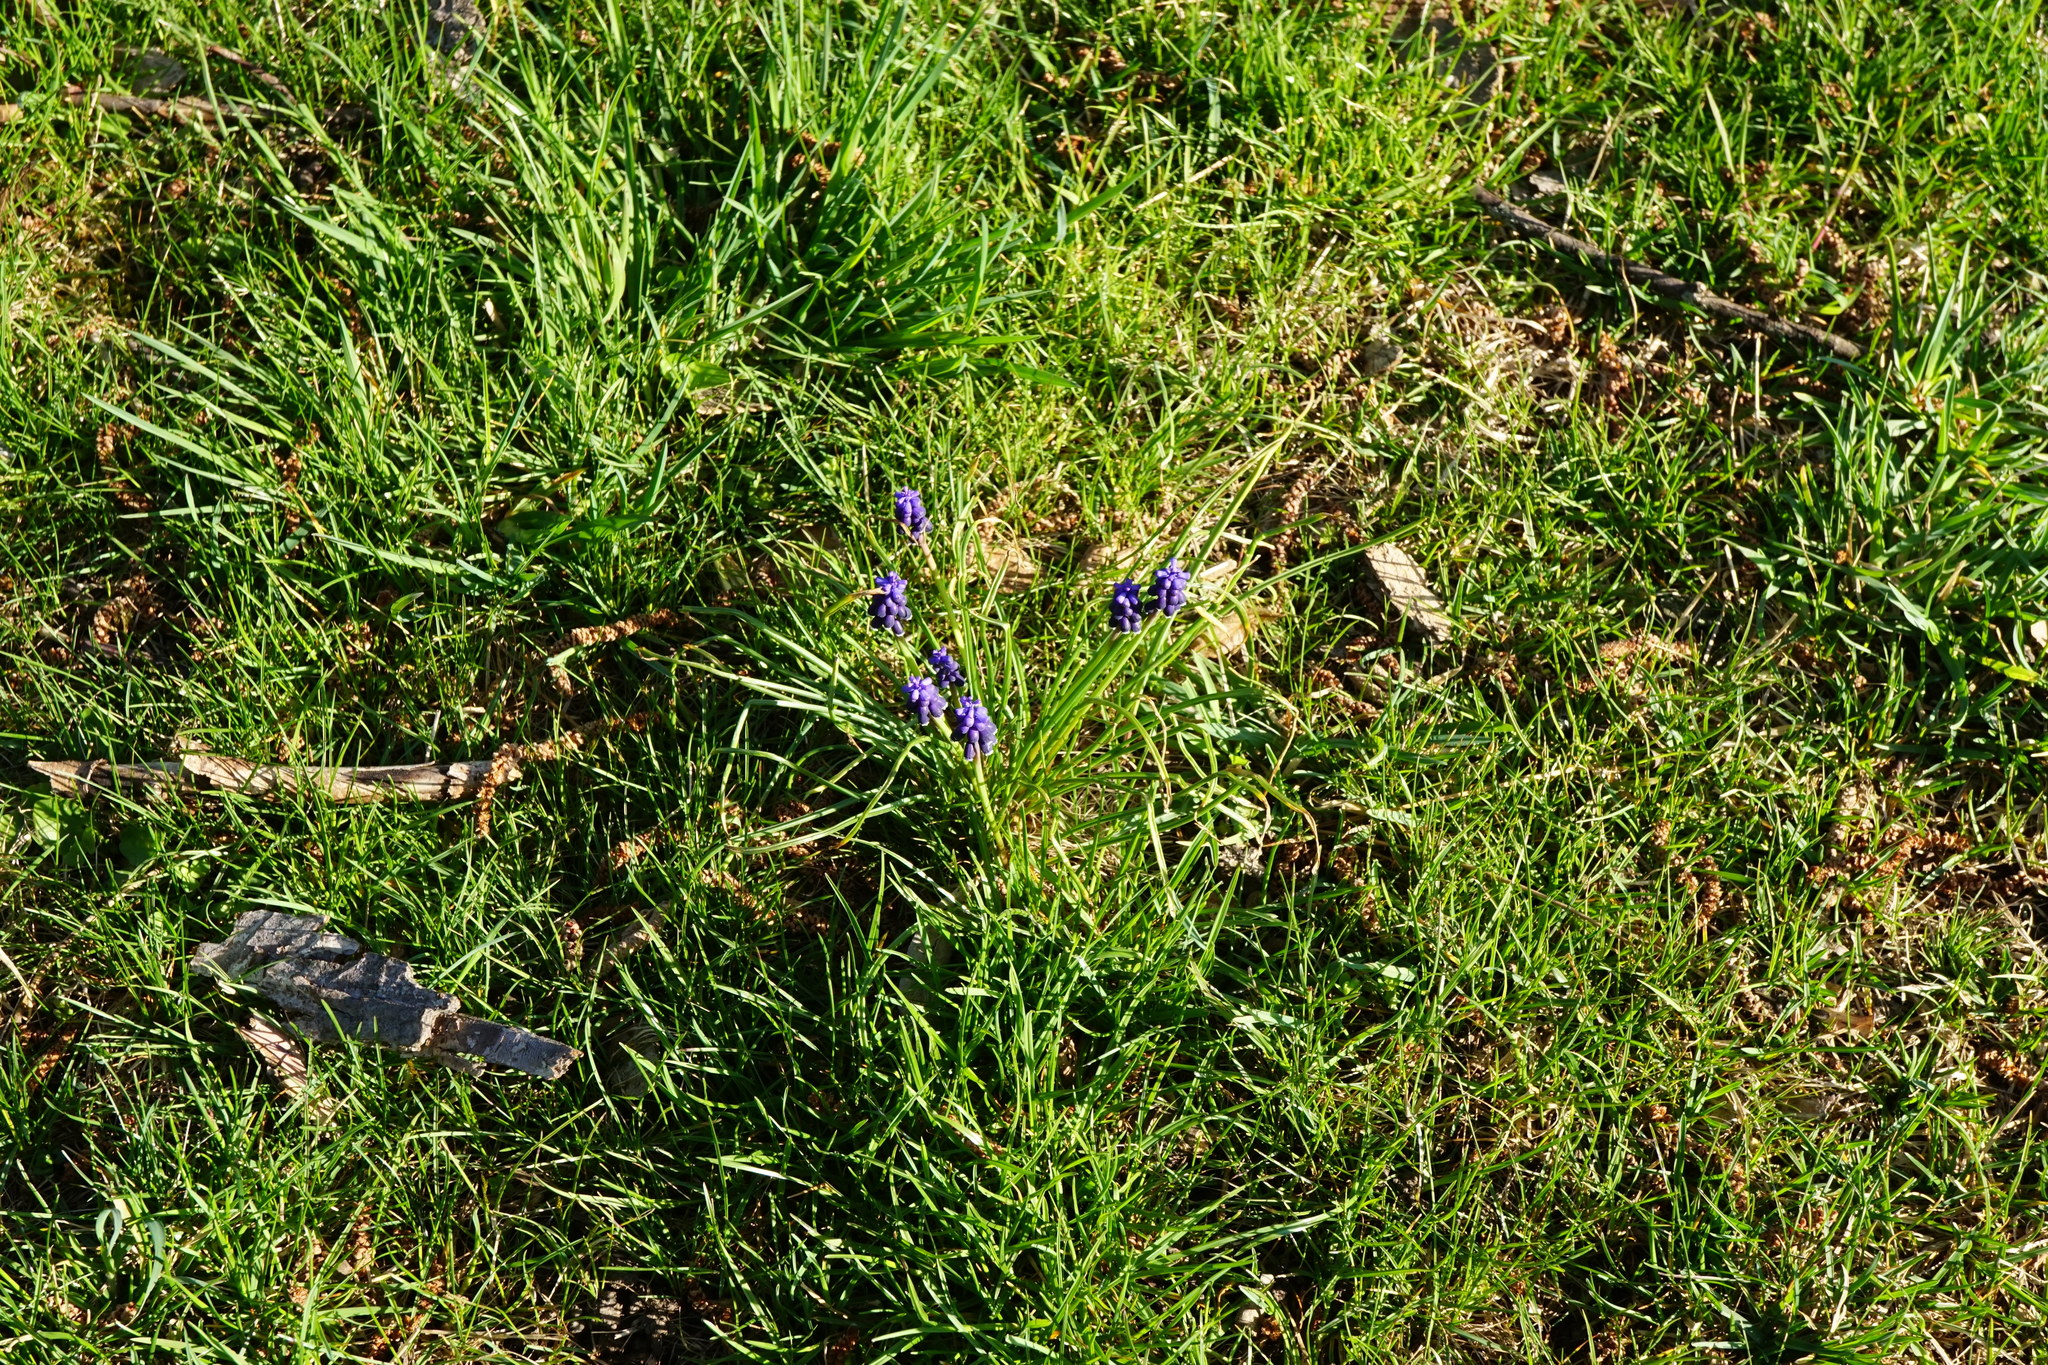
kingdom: Plantae
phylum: Tracheophyta
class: Liliopsida
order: Asparagales
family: Asparagaceae
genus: Muscari
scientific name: Muscari neglectum
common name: Grape-hyacinth
